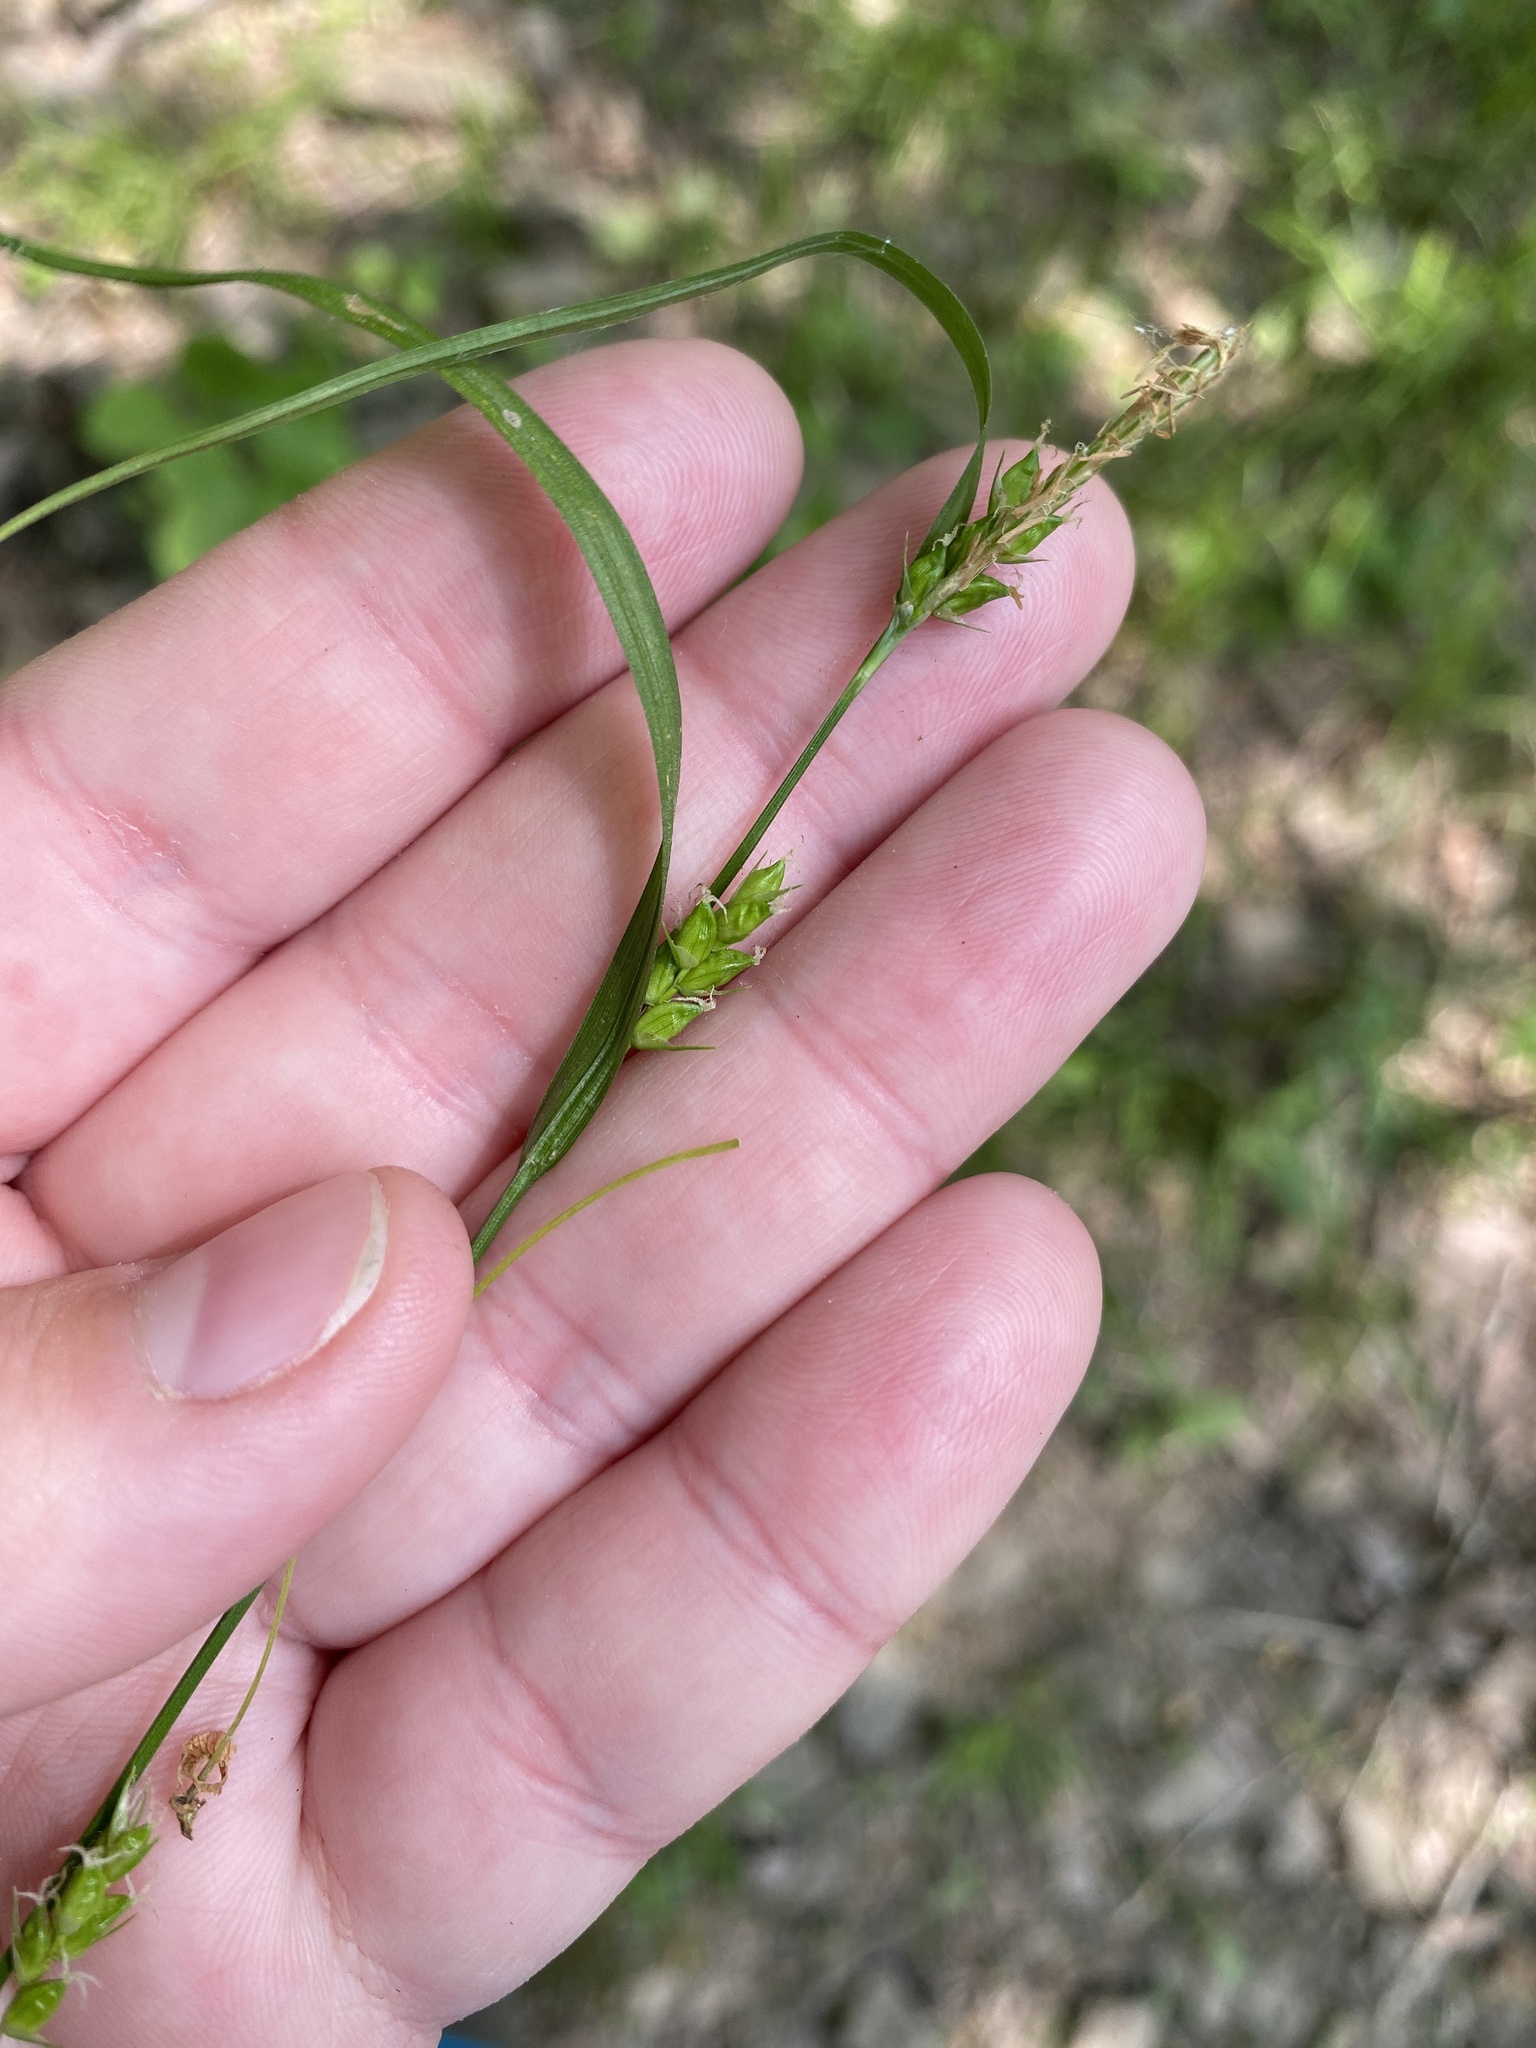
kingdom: Plantae
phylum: Tracheophyta
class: Liliopsida
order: Poales
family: Cyperaceae
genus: Carex
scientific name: Carex amphibola
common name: Amphibious sedge
